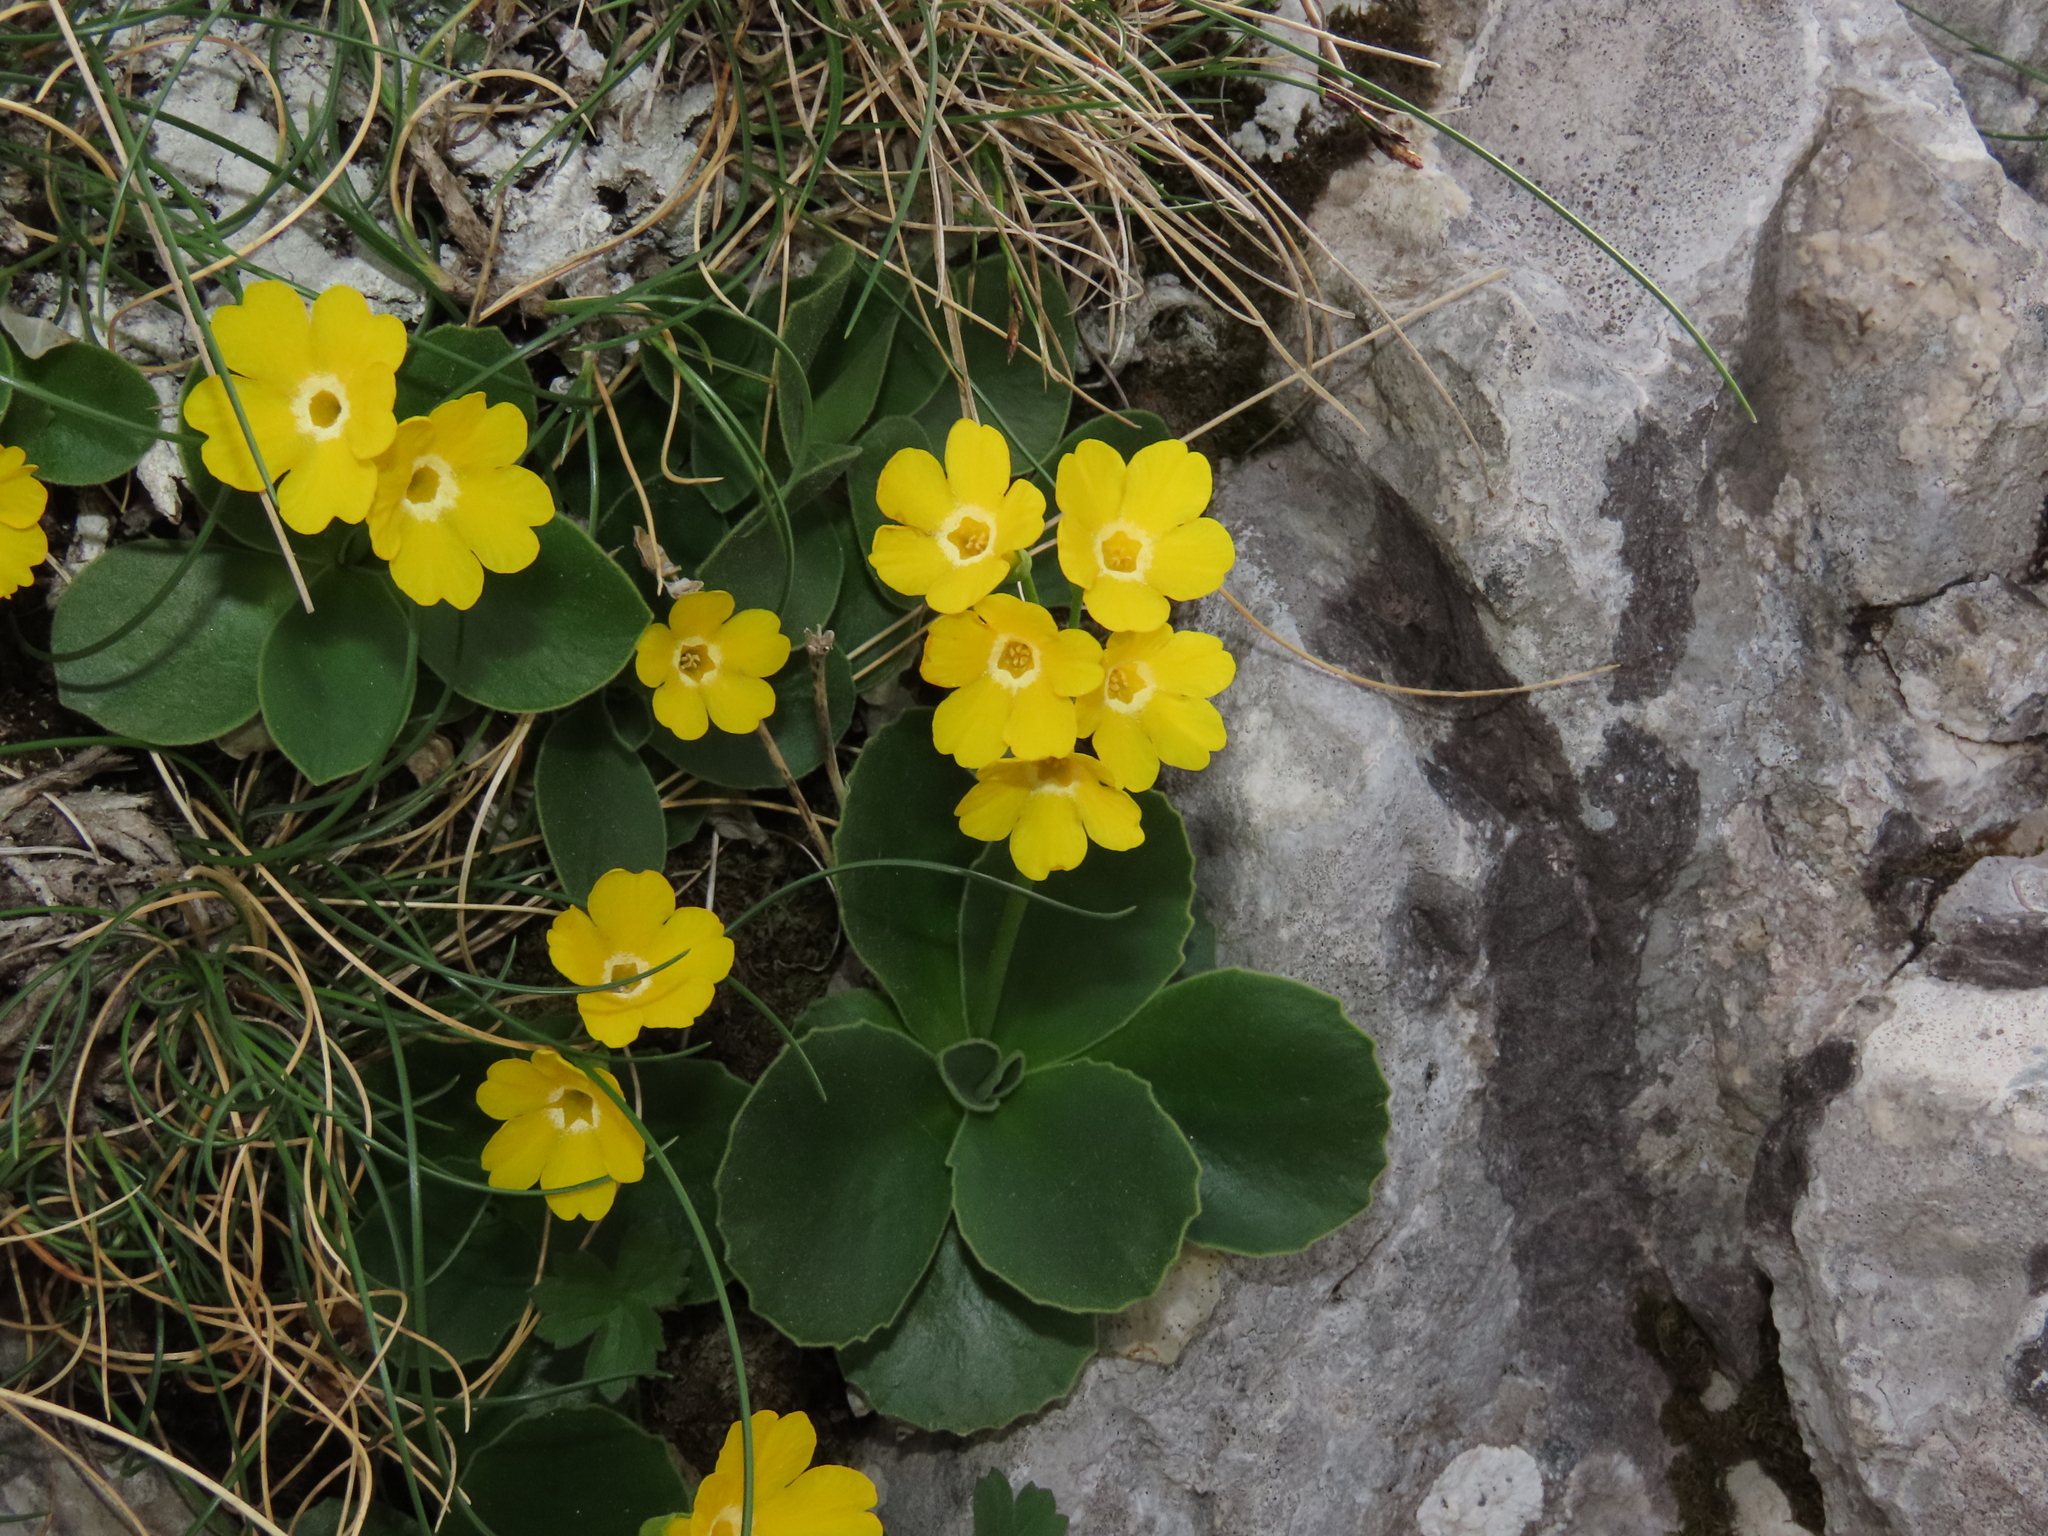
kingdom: Plantae
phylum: Tracheophyta
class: Magnoliopsida
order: Ericales
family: Primulaceae
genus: Primula
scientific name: Primula auricula
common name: Auricula
